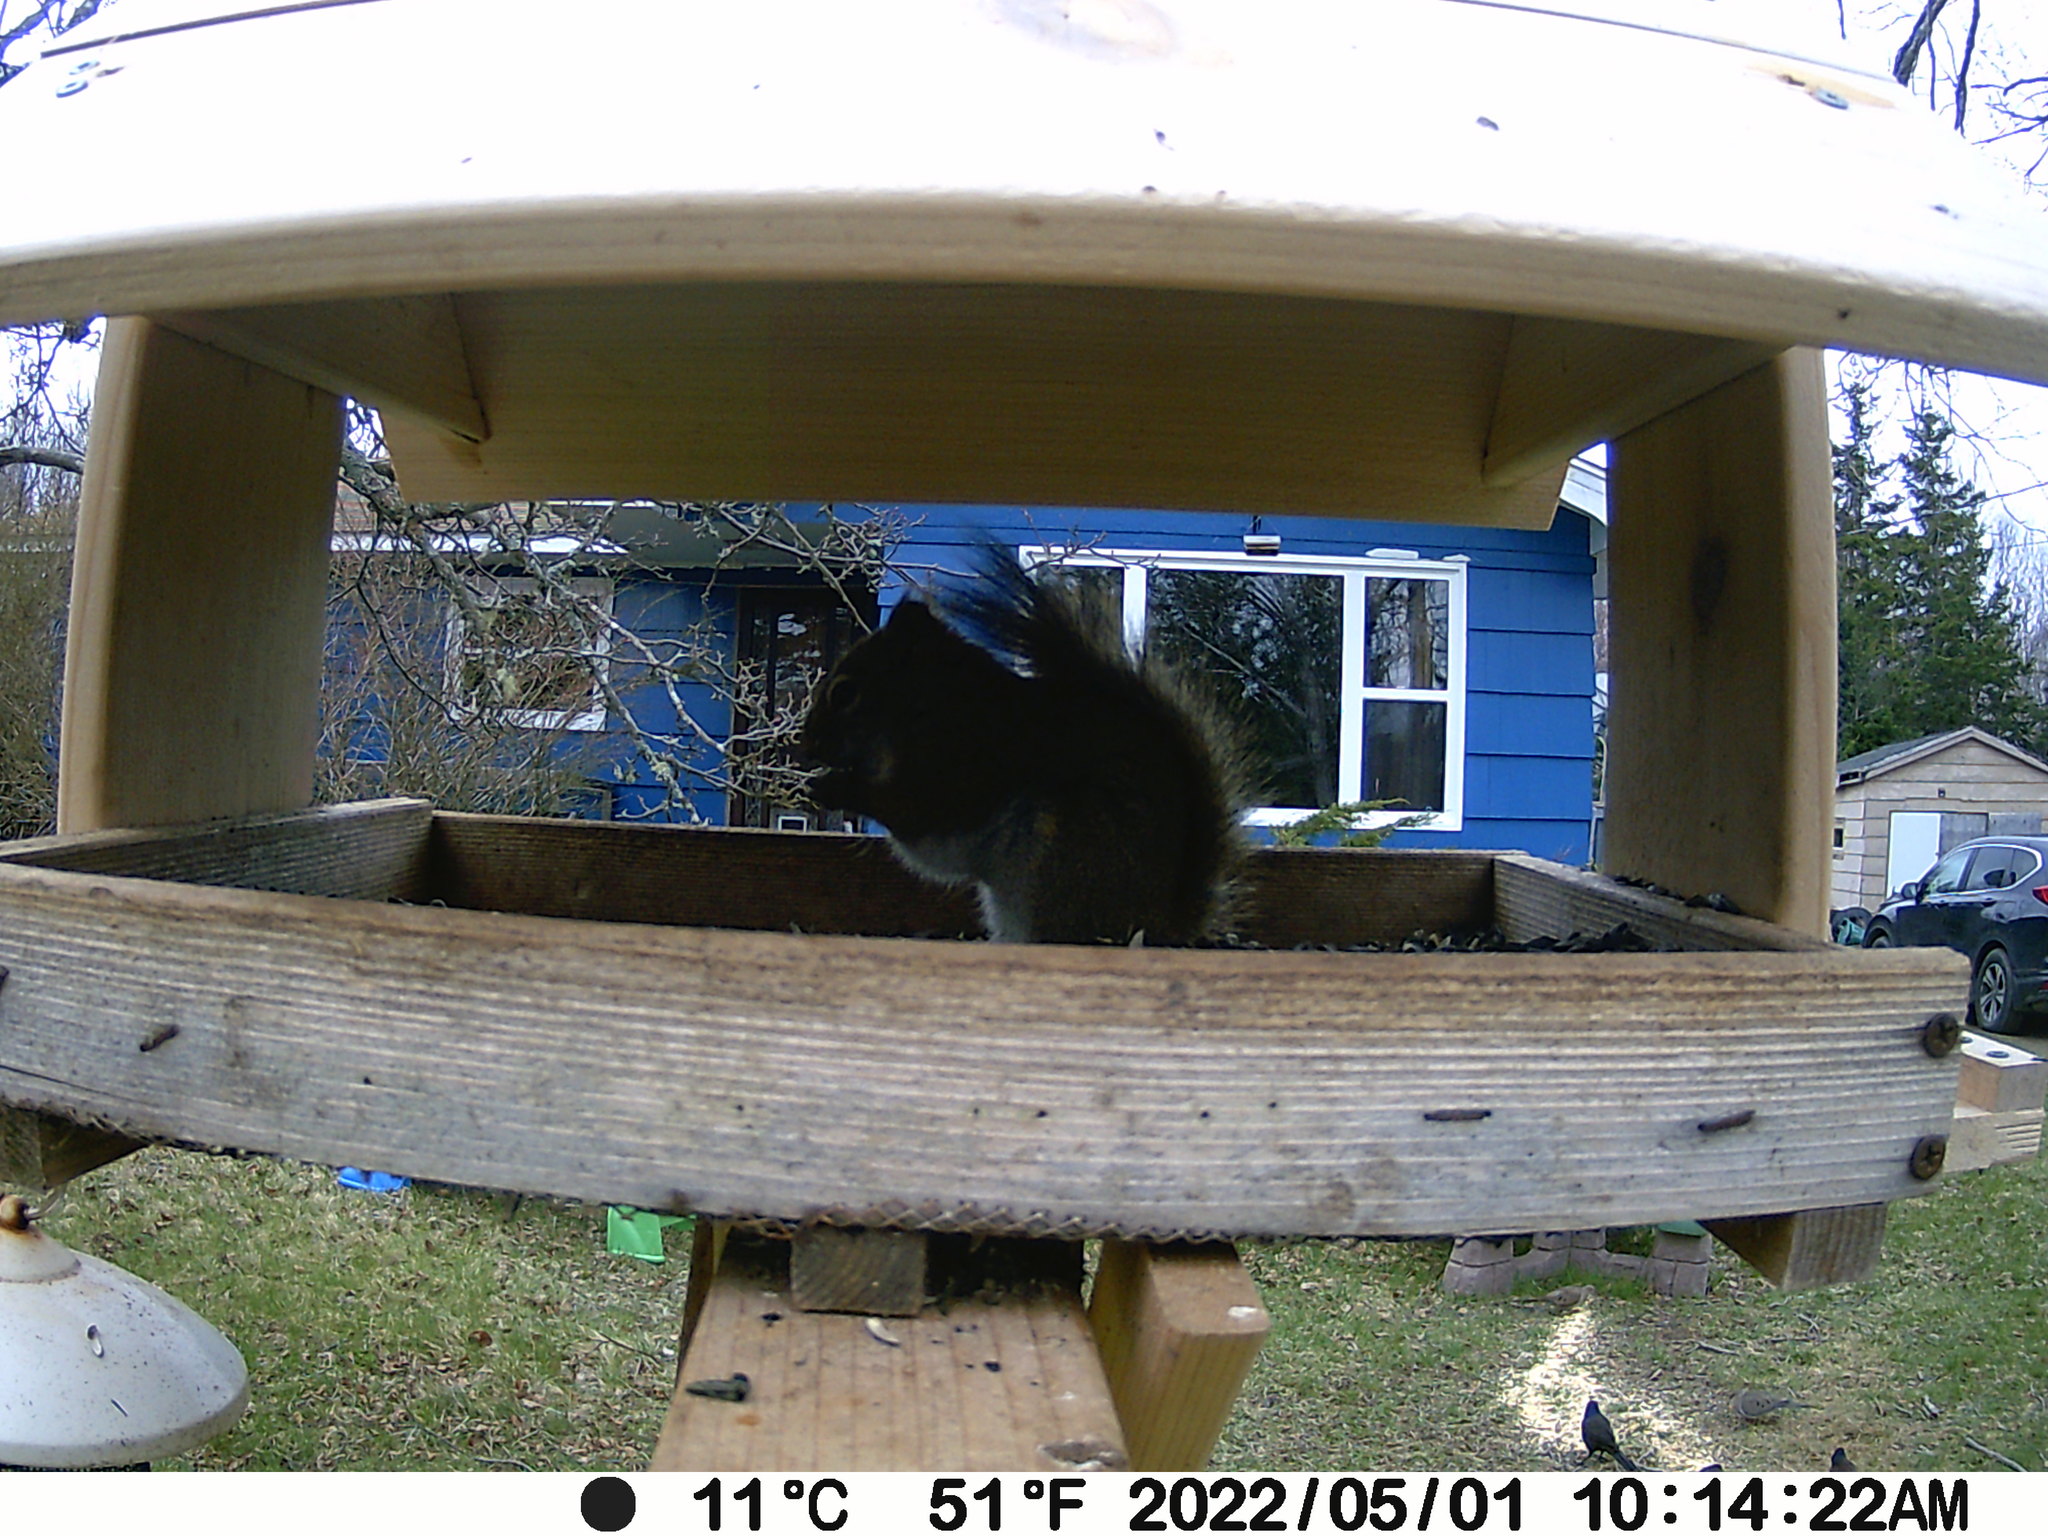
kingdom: Animalia
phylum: Chordata
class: Aves
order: Passeriformes
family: Icteridae
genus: Quiscalus
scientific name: Quiscalus quiscula
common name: Common grackle
